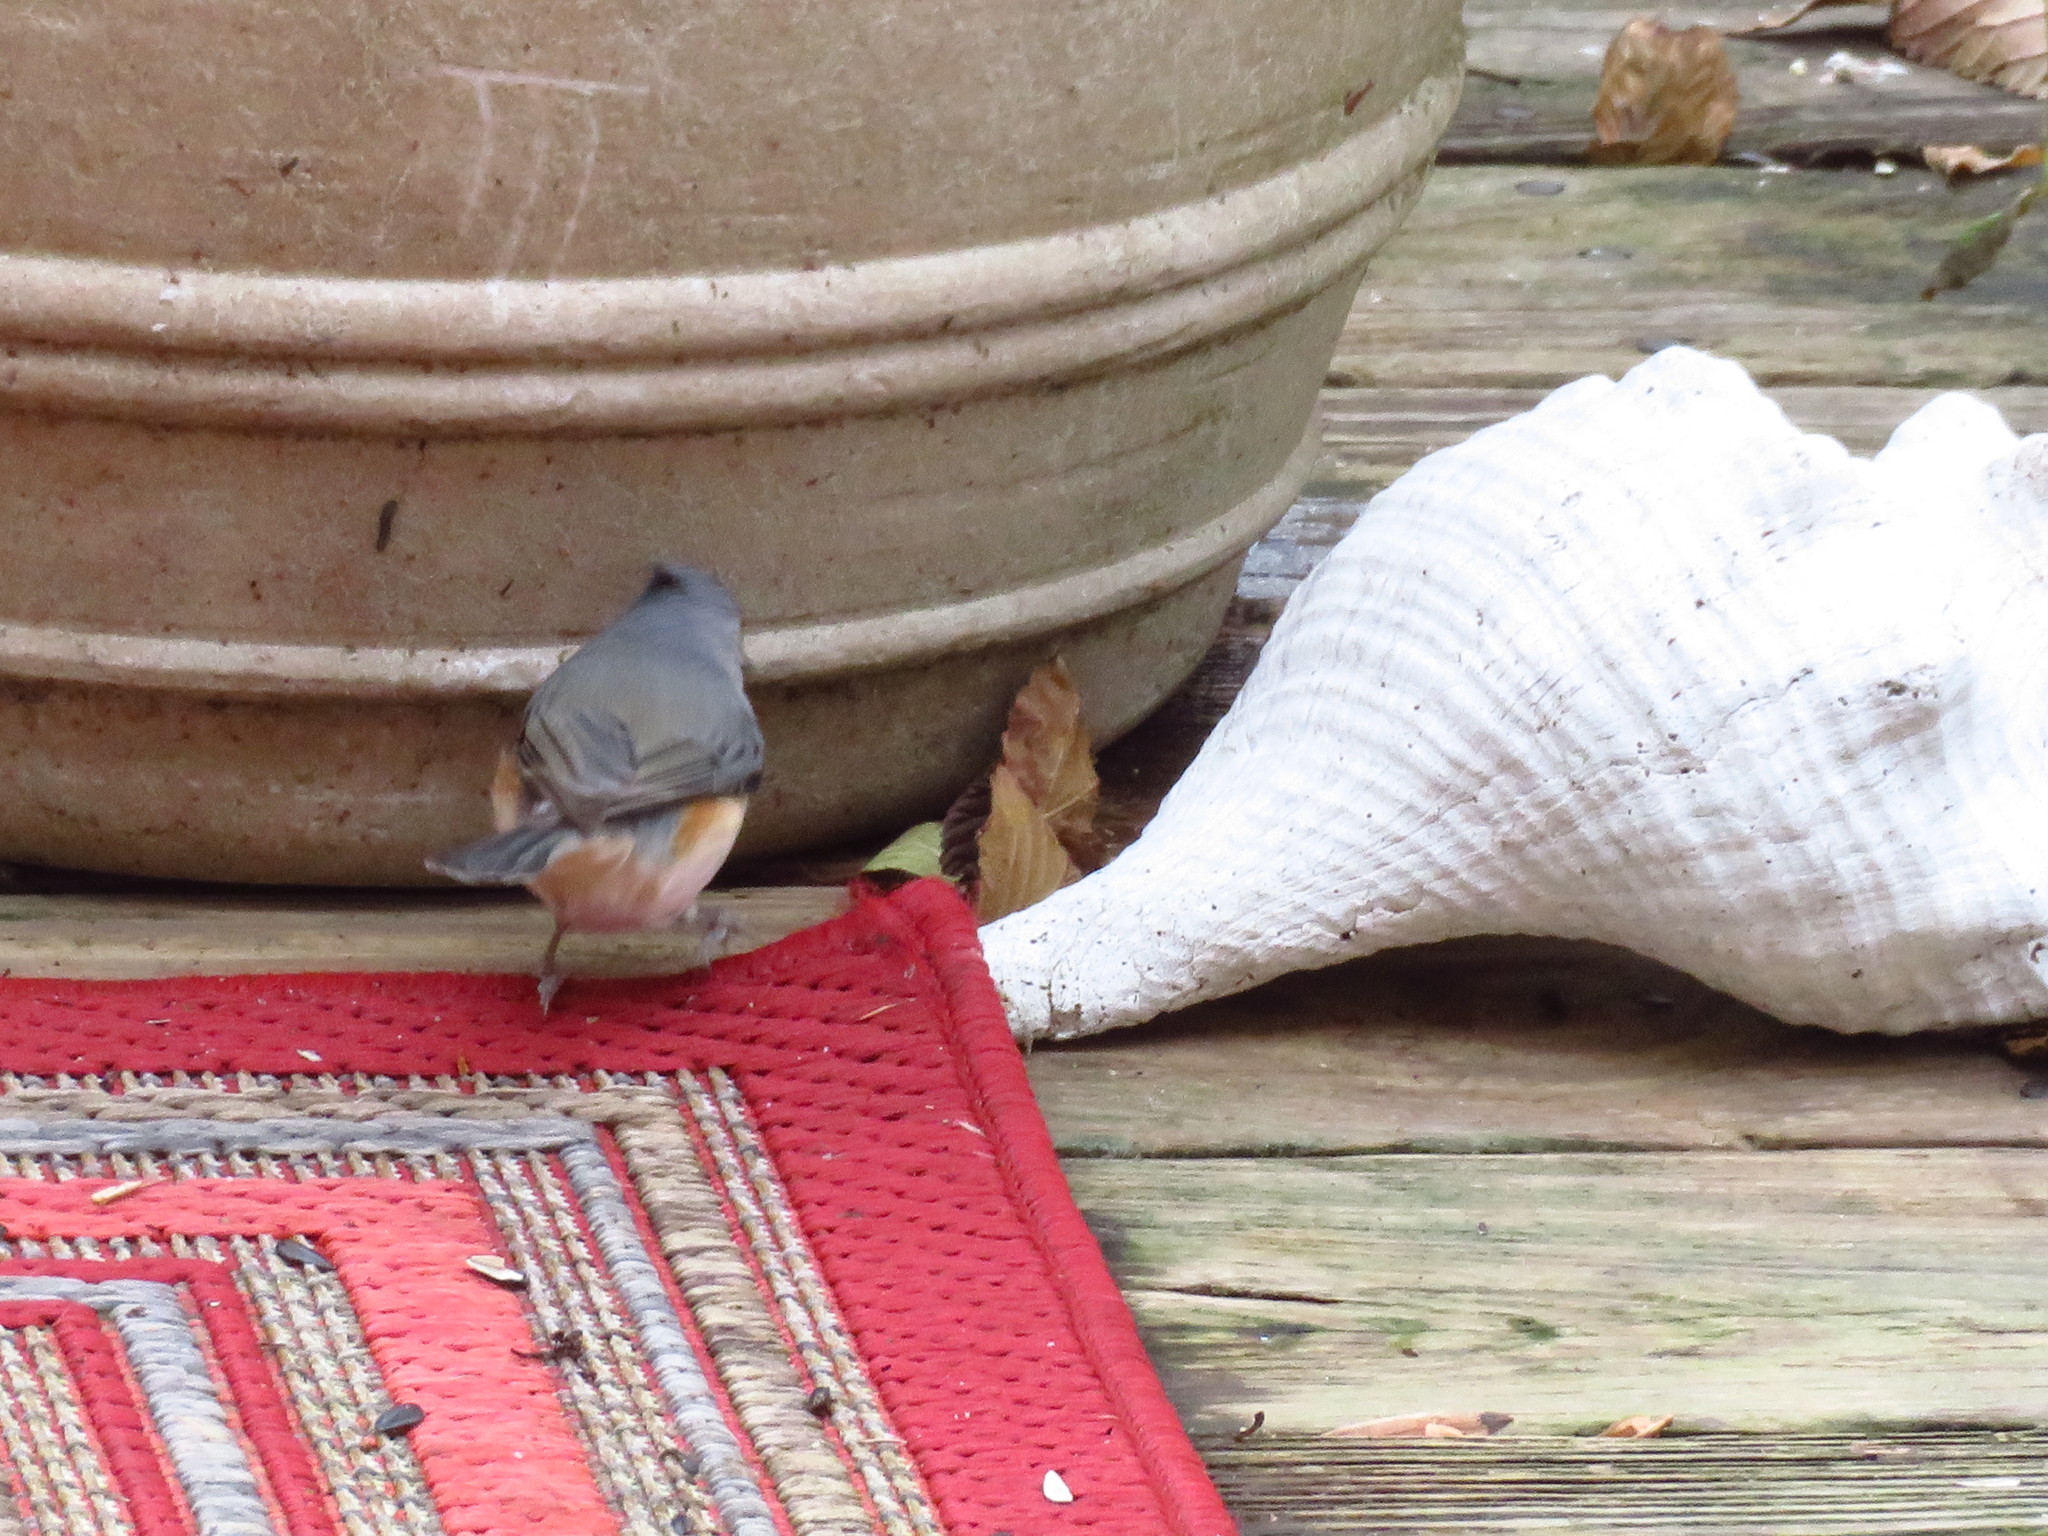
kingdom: Animalia
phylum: Chordata
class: Aves
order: Passeriformes
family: Paridae
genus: Baeolophus
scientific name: Baeolophus bicolor
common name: Tufted titmouse
